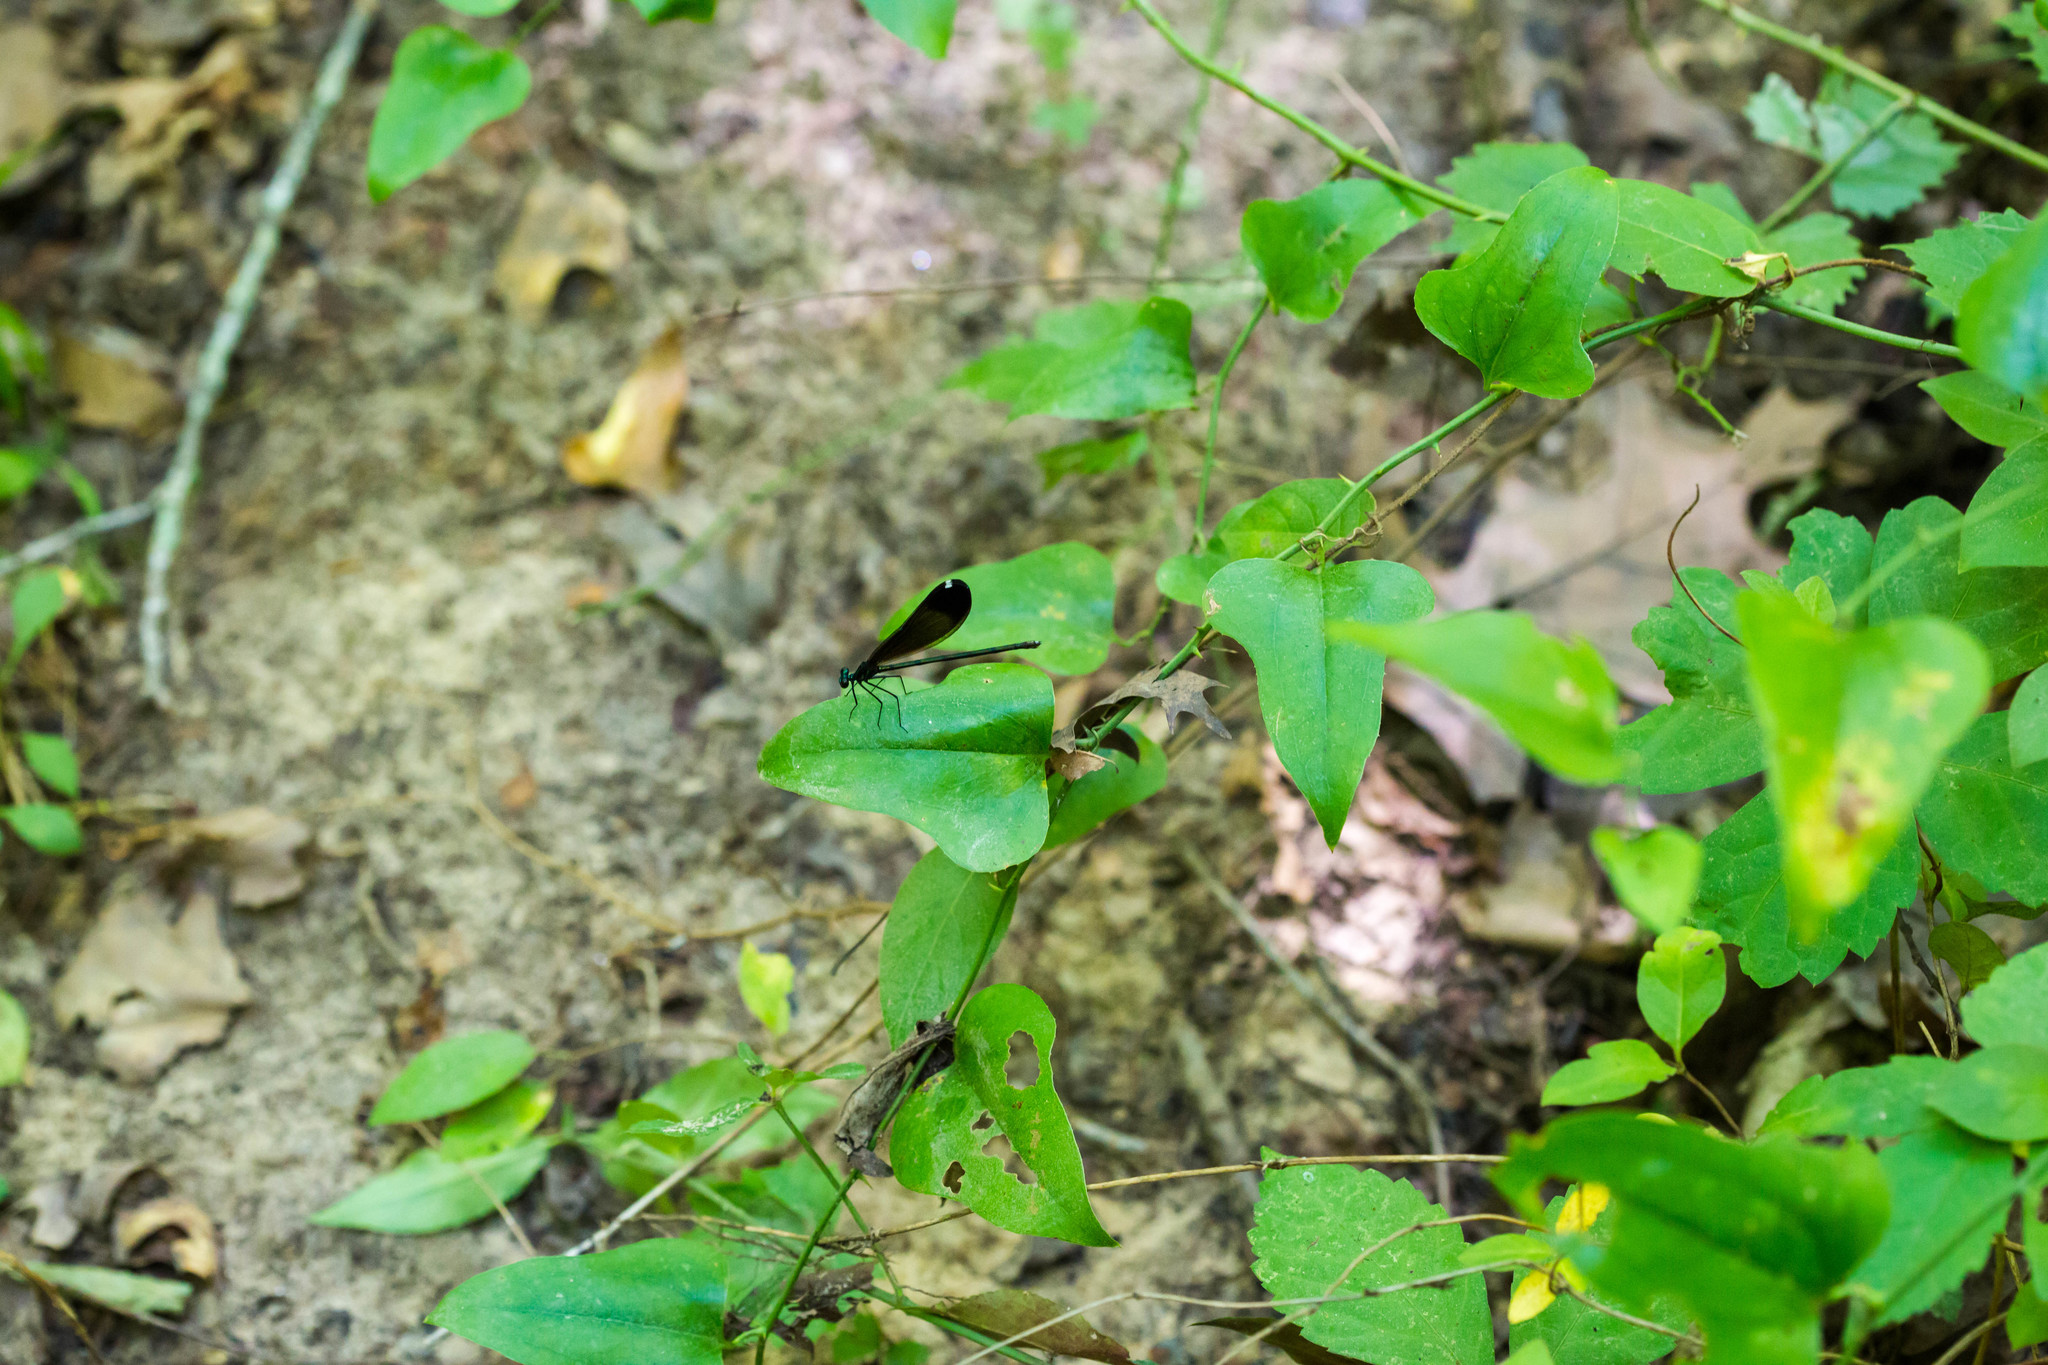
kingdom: Animalia
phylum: Arthropoda
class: Insecta
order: Odonata
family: Calopterygidae
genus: Calopteryx
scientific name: Calopteryx maculata
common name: Ebony jewelwing
